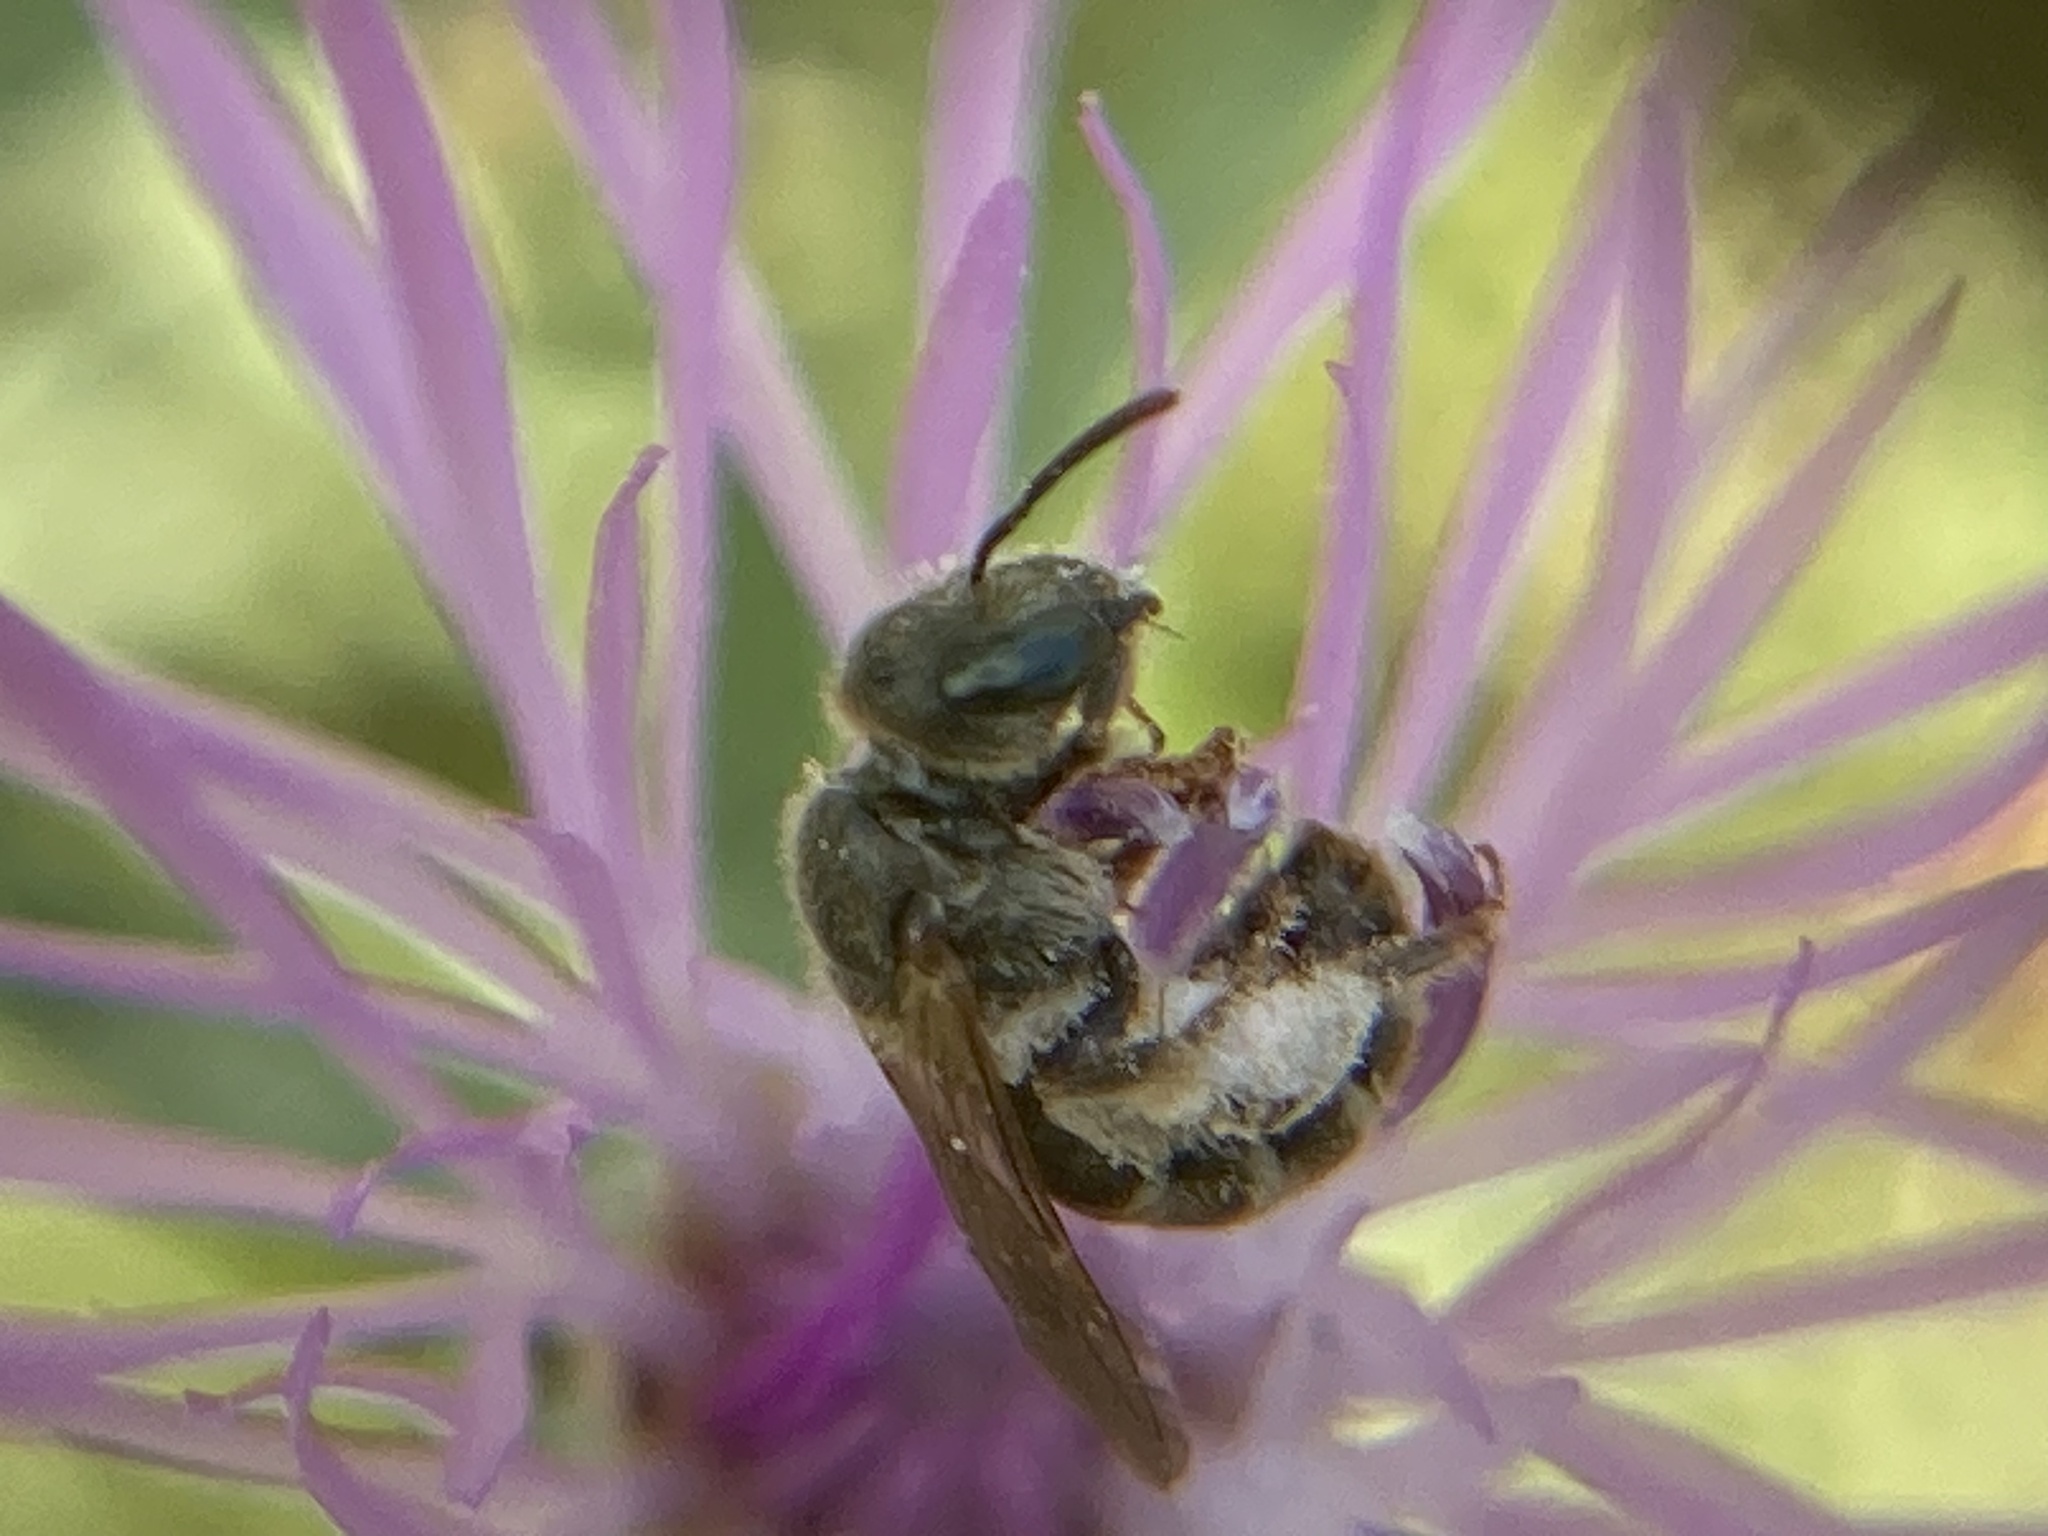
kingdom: Animalia
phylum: Arthropoda
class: Insecta
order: Hymenoptera
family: Halictidae
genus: Halictus
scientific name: Halictus confusus
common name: Southern bronze furrow bee
